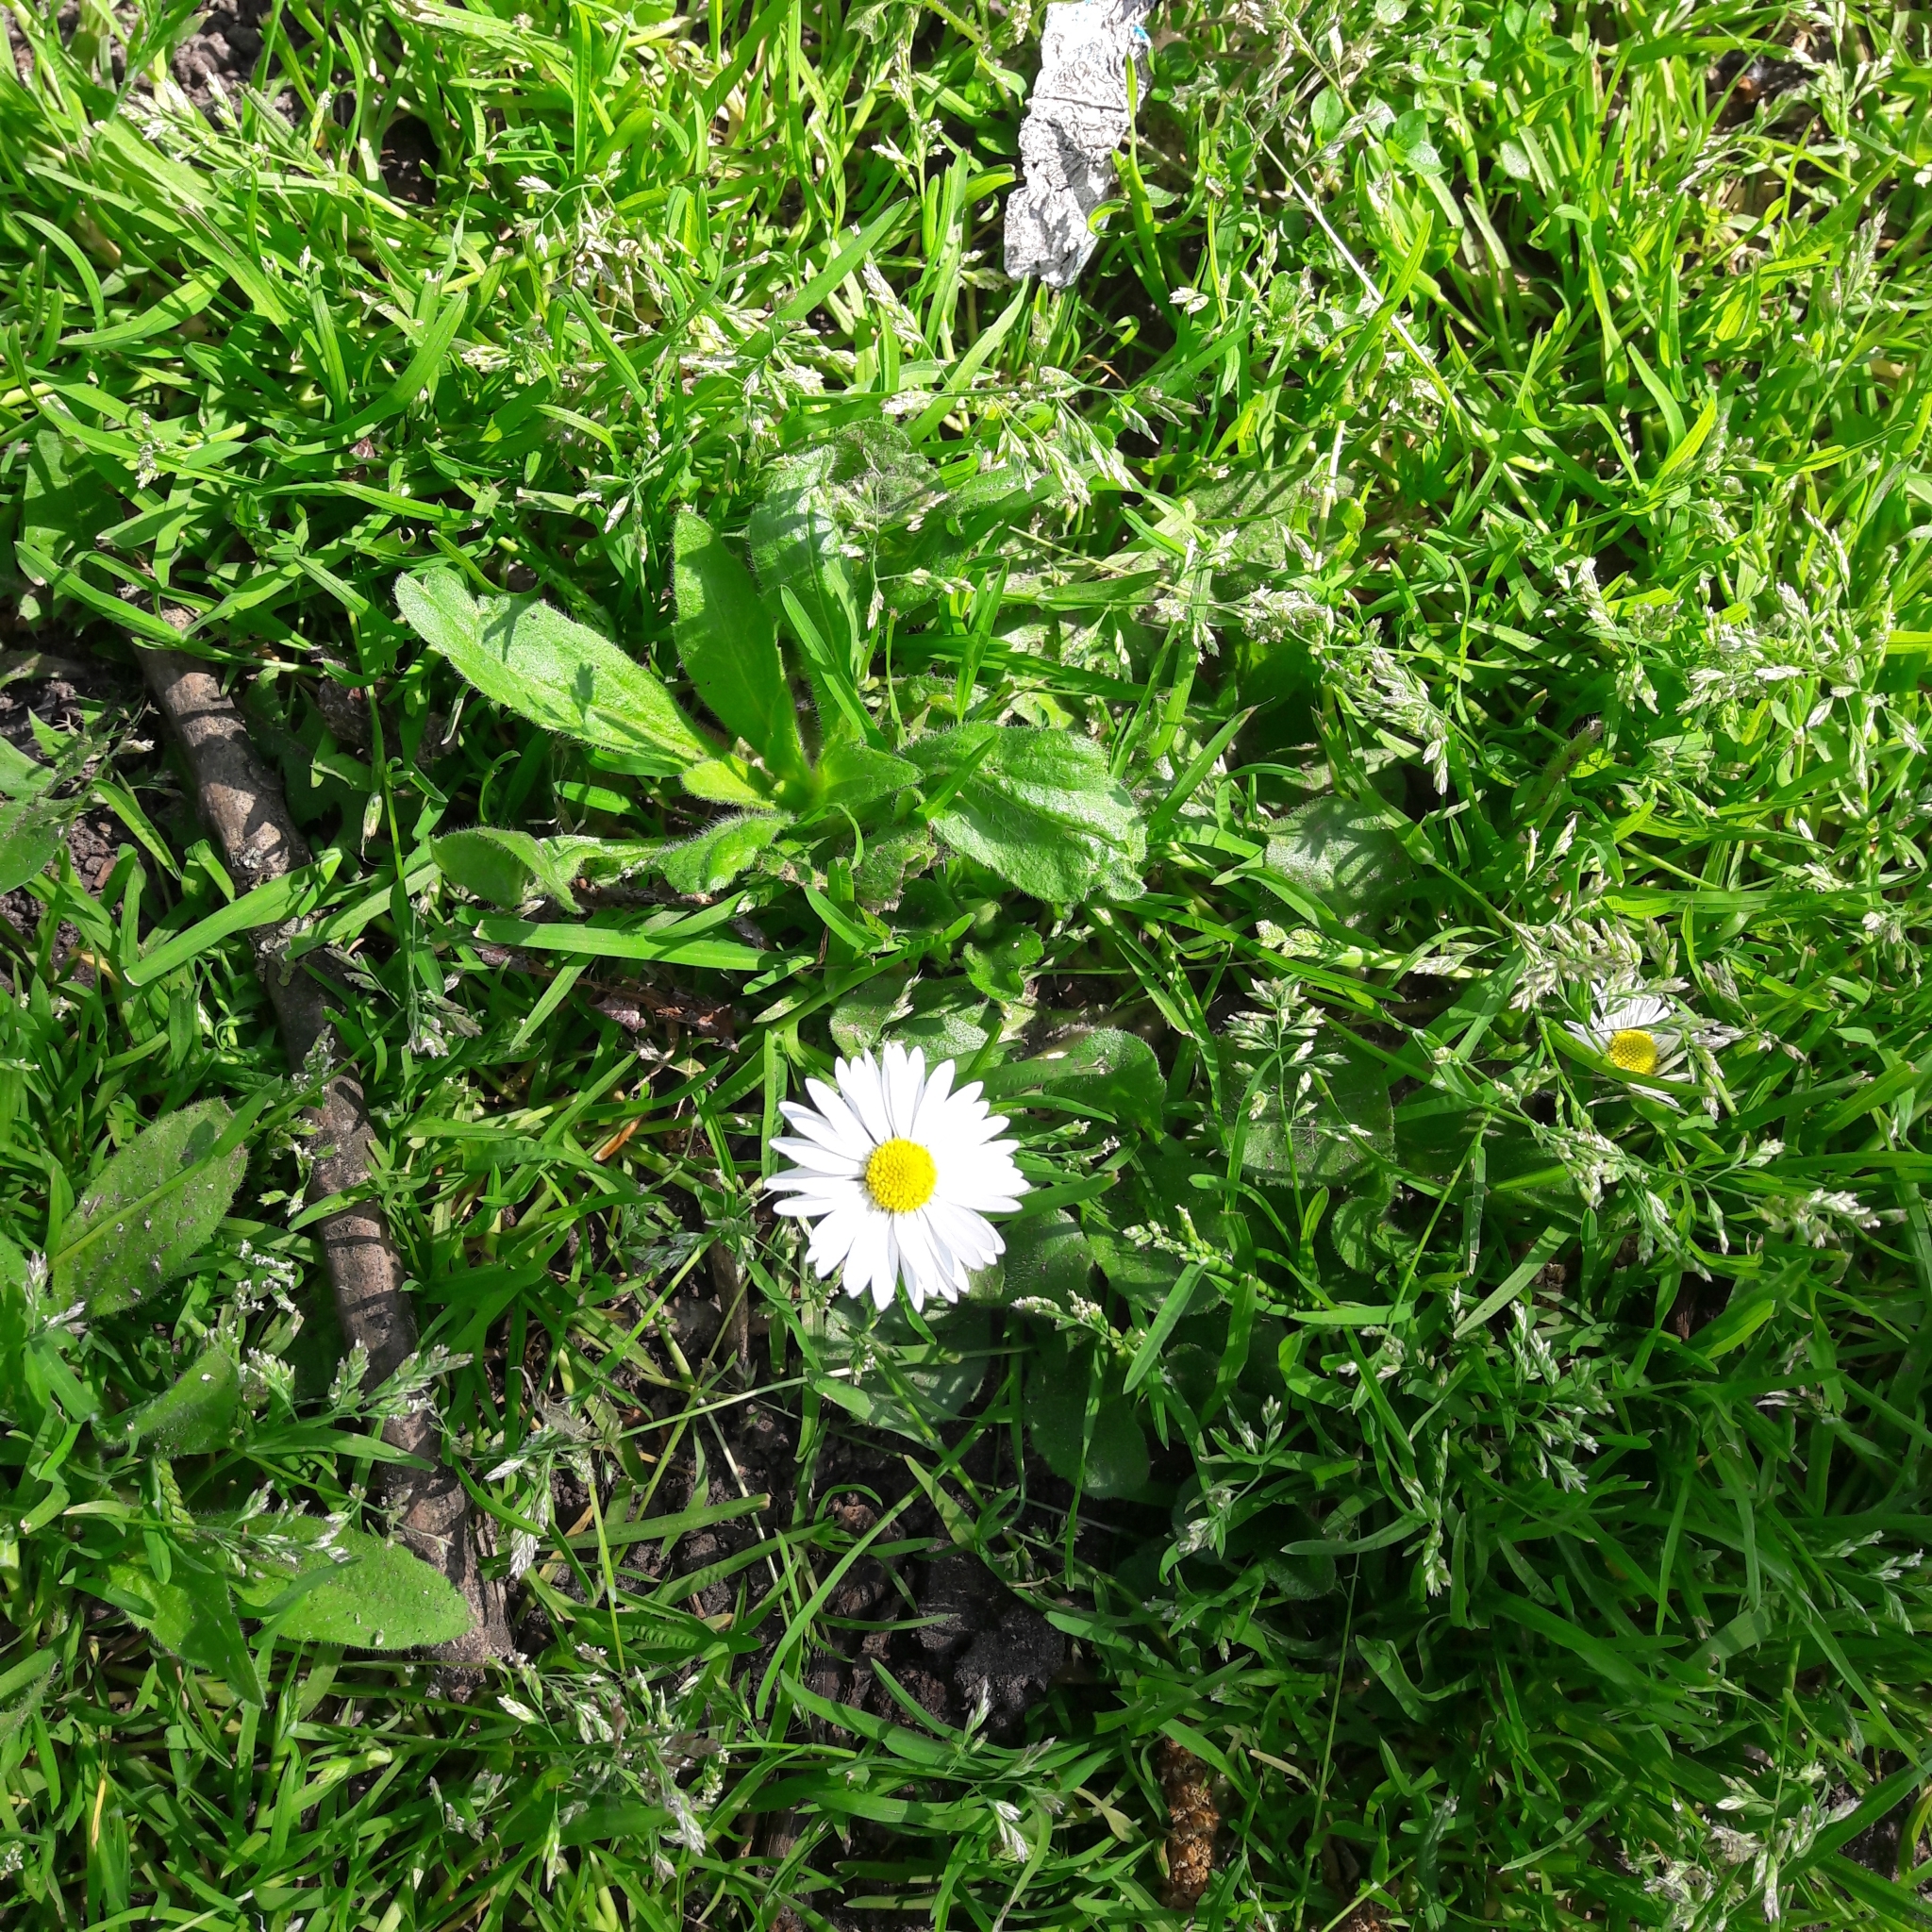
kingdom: Plantae
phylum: Tracheophyta
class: Magnoliopsida
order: Asterales
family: Asteraceae
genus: Bellis
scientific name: Bellis perennis
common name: Lawndaisy
